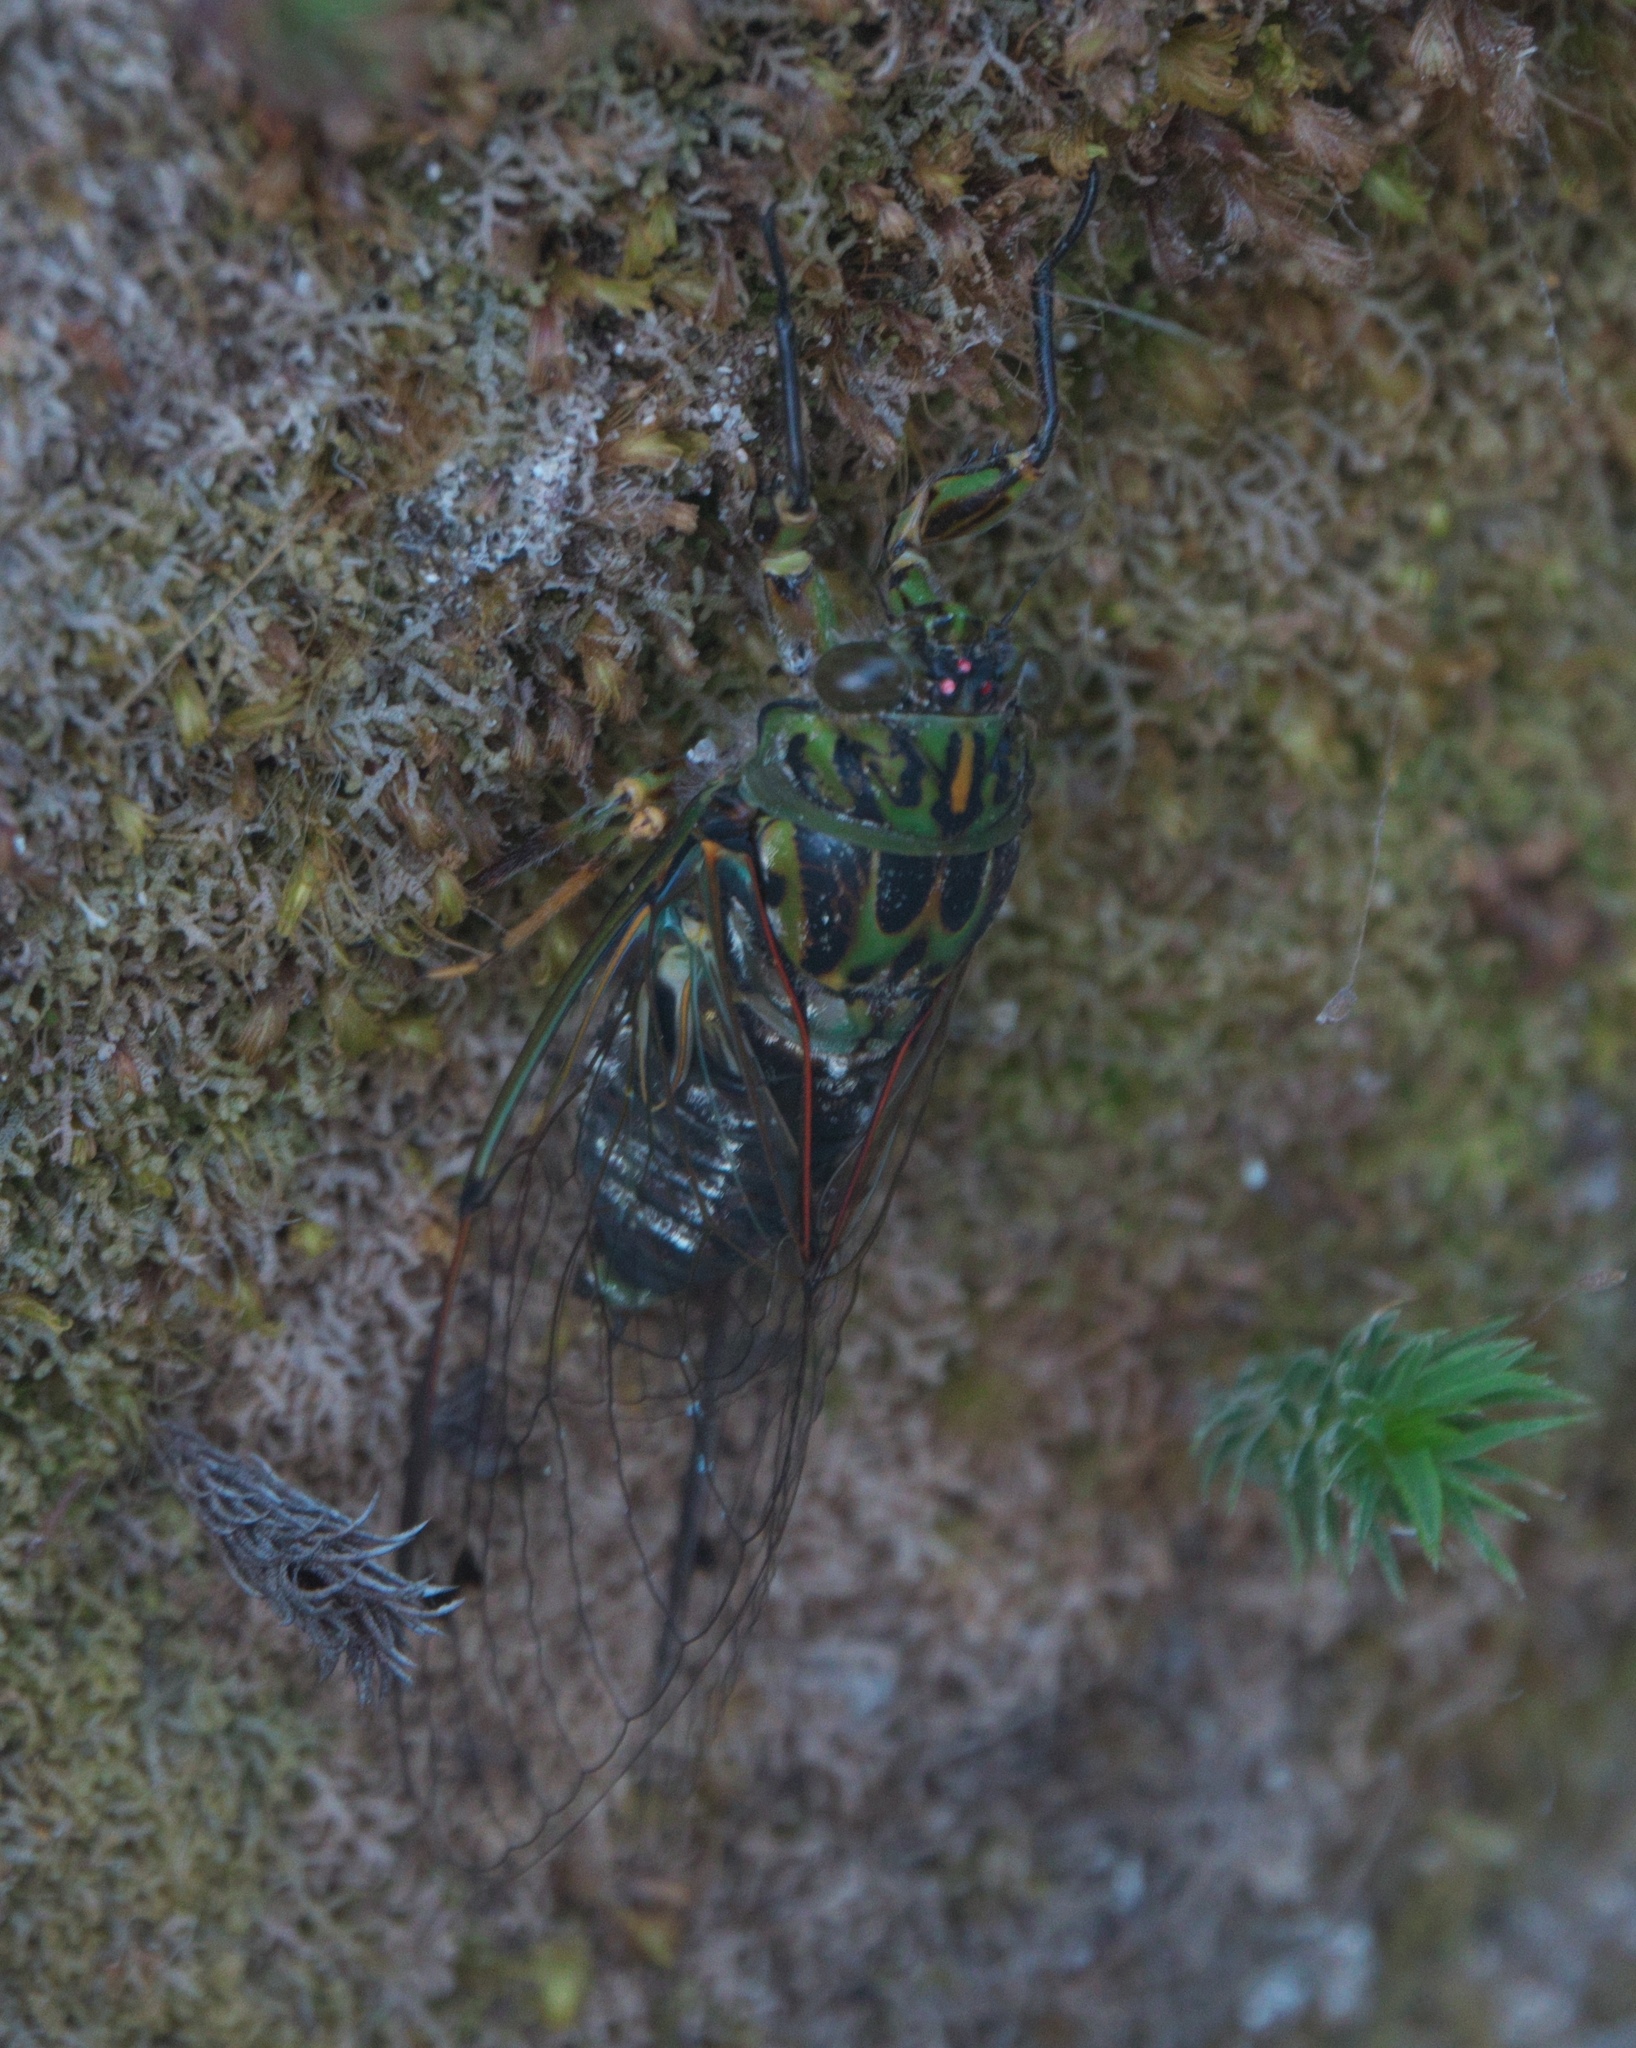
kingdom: Animalia
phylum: Arthropoda
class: Insecta
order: Hemiptera
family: Cicadidae
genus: Amphipsalta
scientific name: Amphipsalta zelandica
